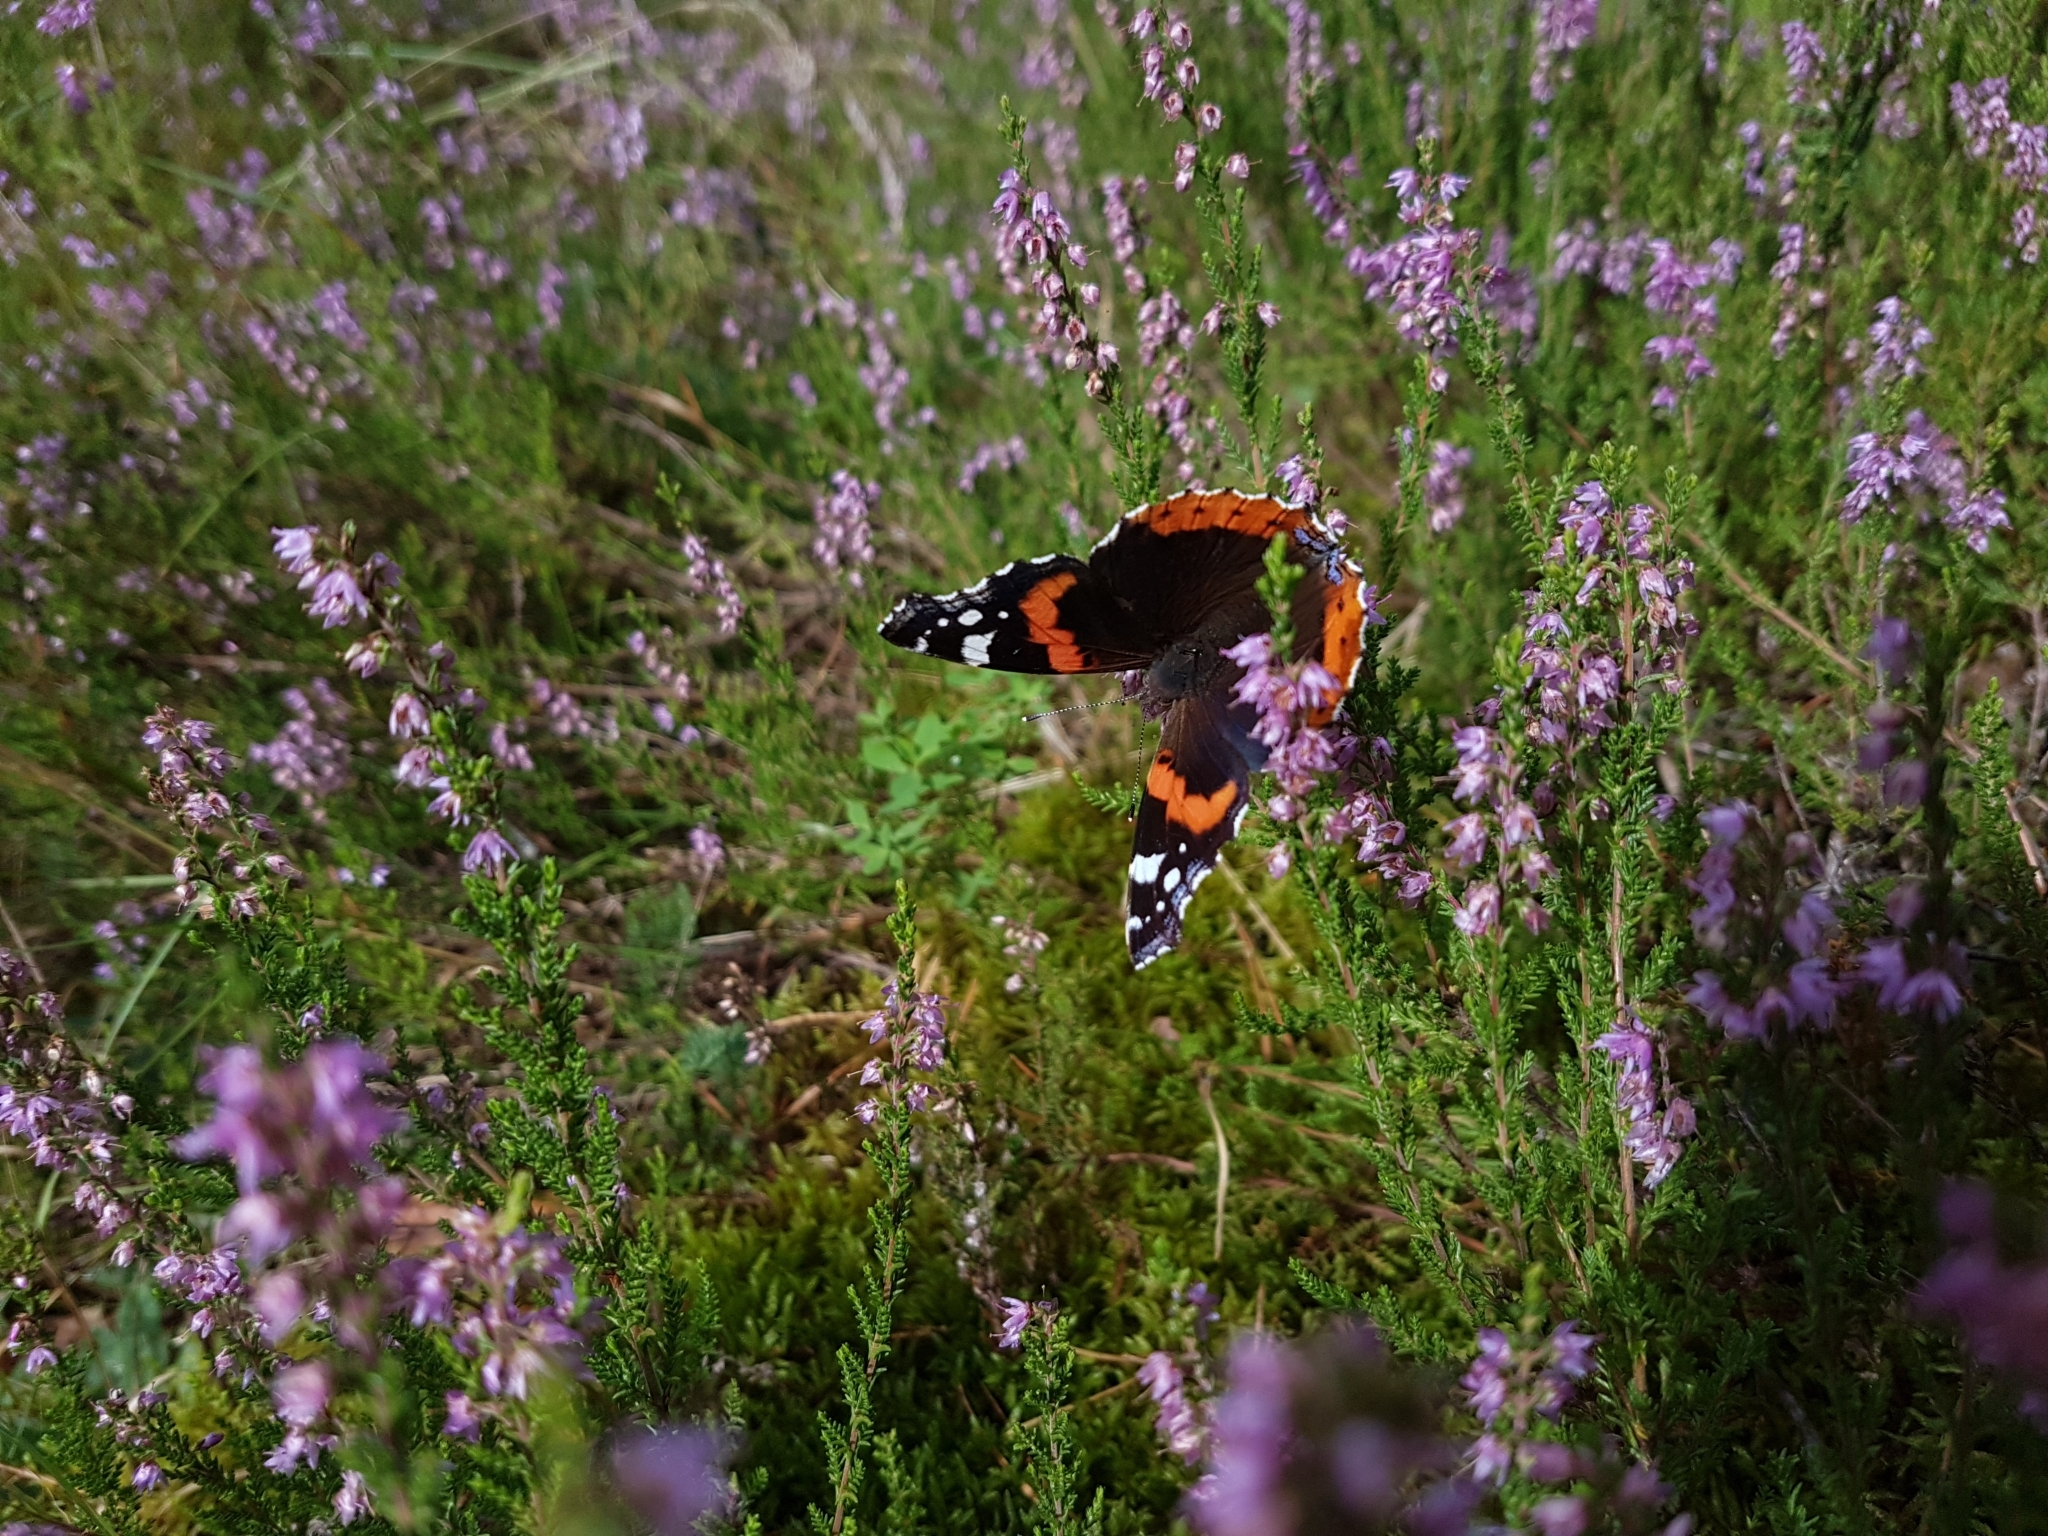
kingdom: Animalia
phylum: Arthropoda
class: Insecta
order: Lepidoptera
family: Nymphalidae
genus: Vanessa
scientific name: Vanessa atalanta
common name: Red admiral
